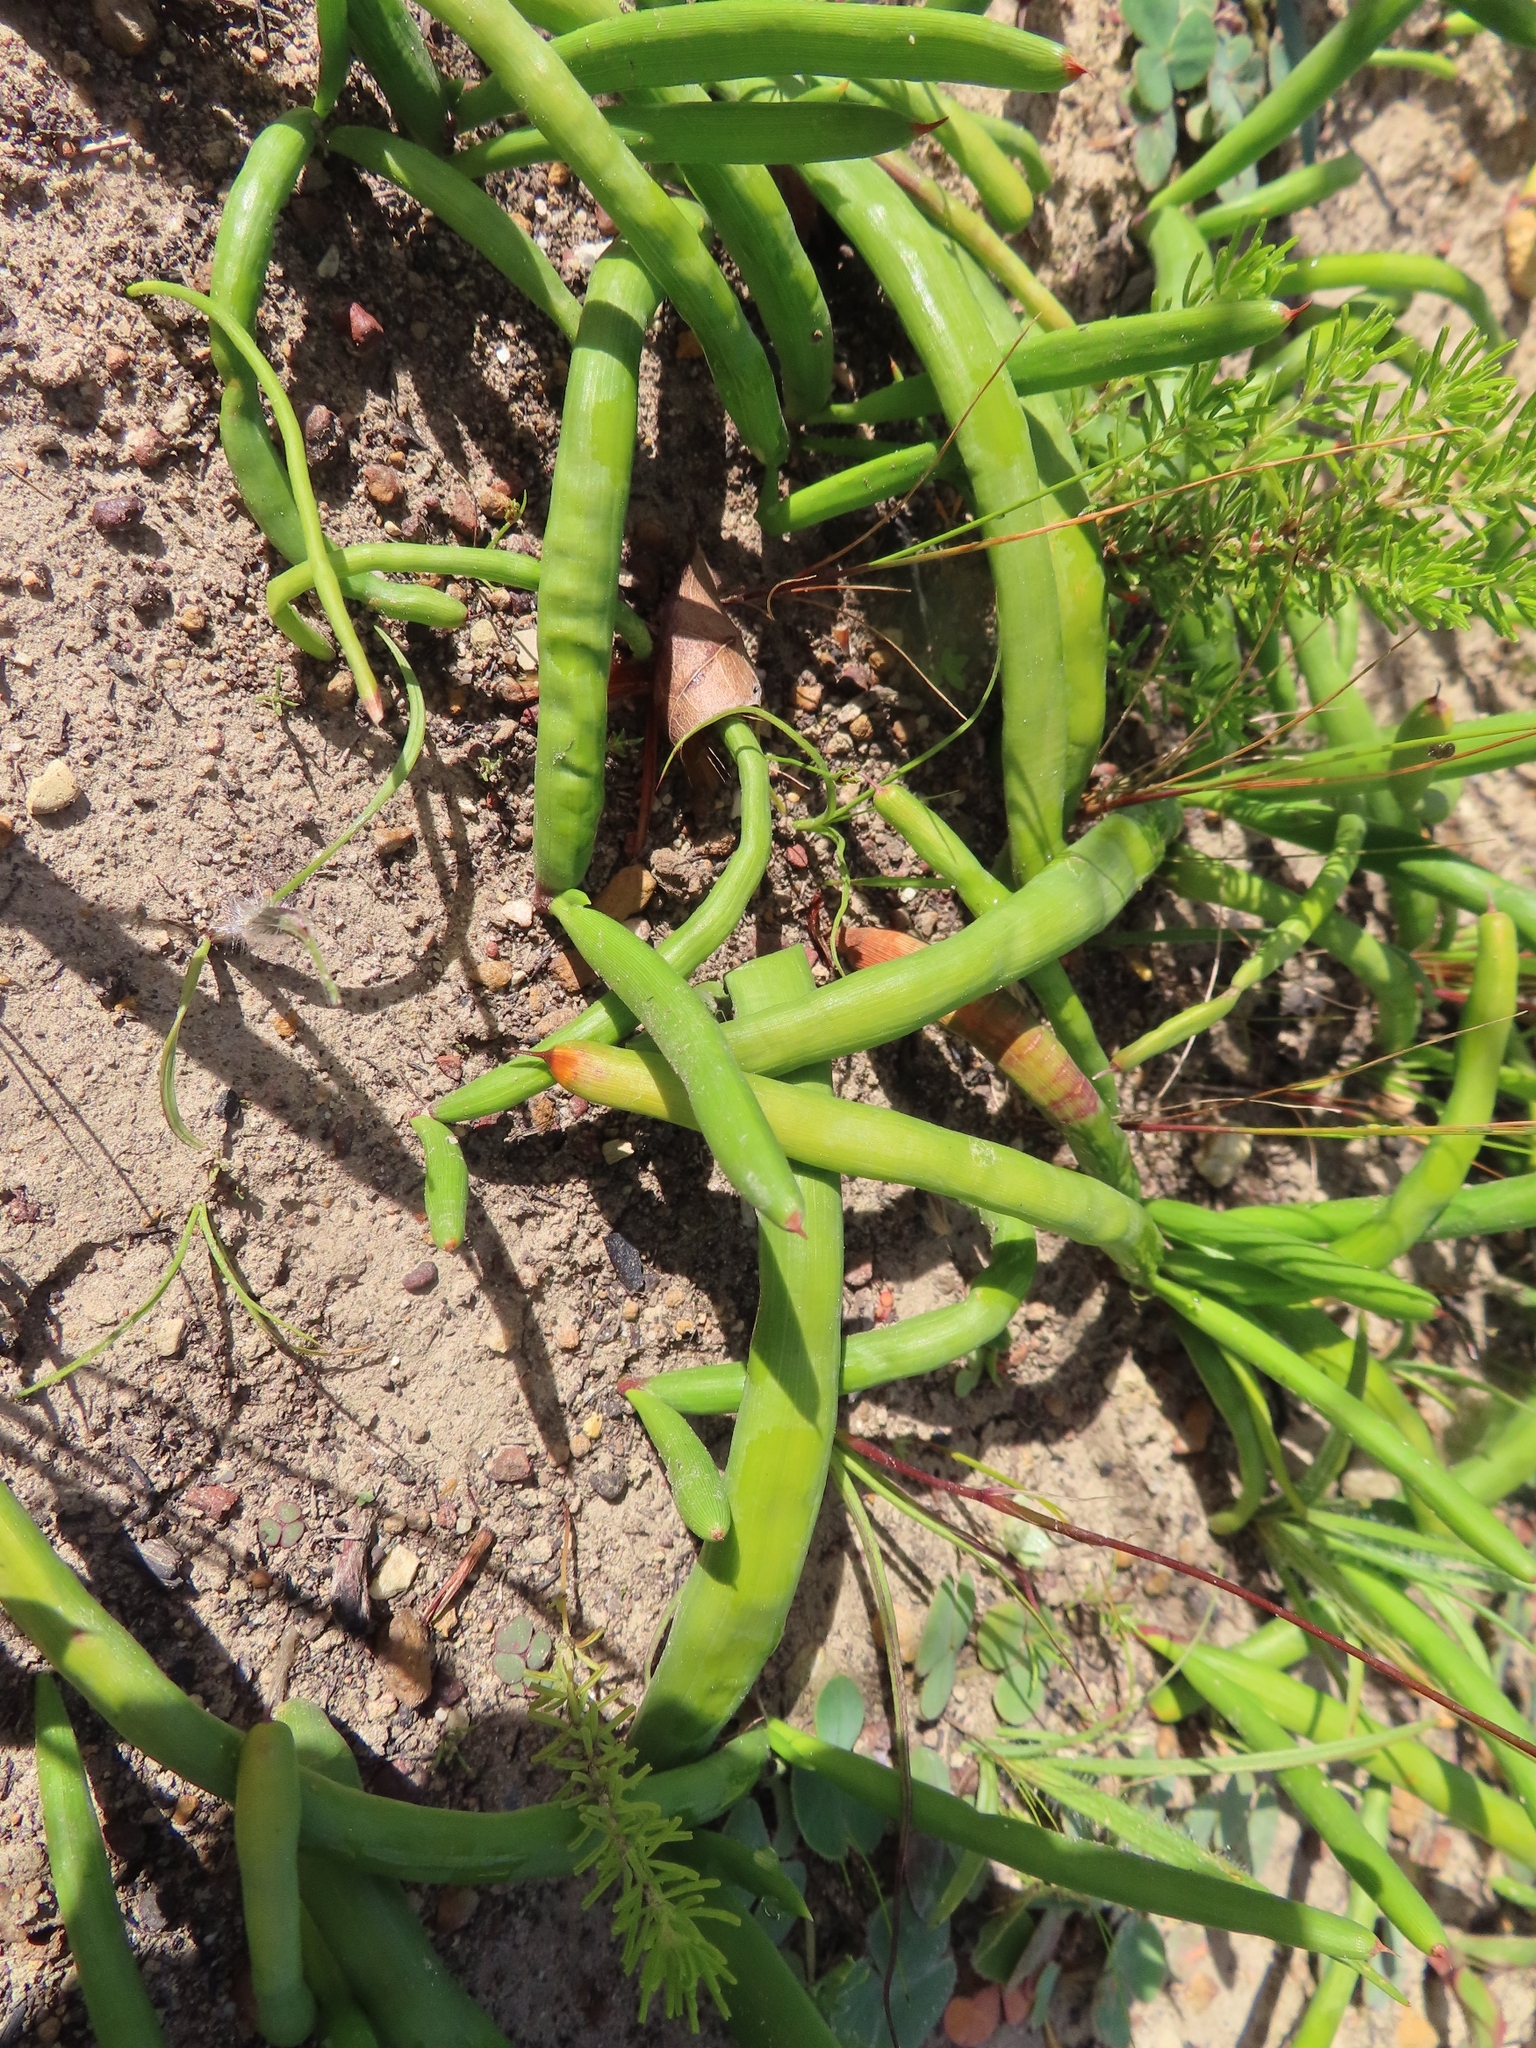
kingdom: Plantae
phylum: Tracheophyta
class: Liliopsida
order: Asparagales
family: Iridaceae
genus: Micranthus
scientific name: Micranthus tubulosus
